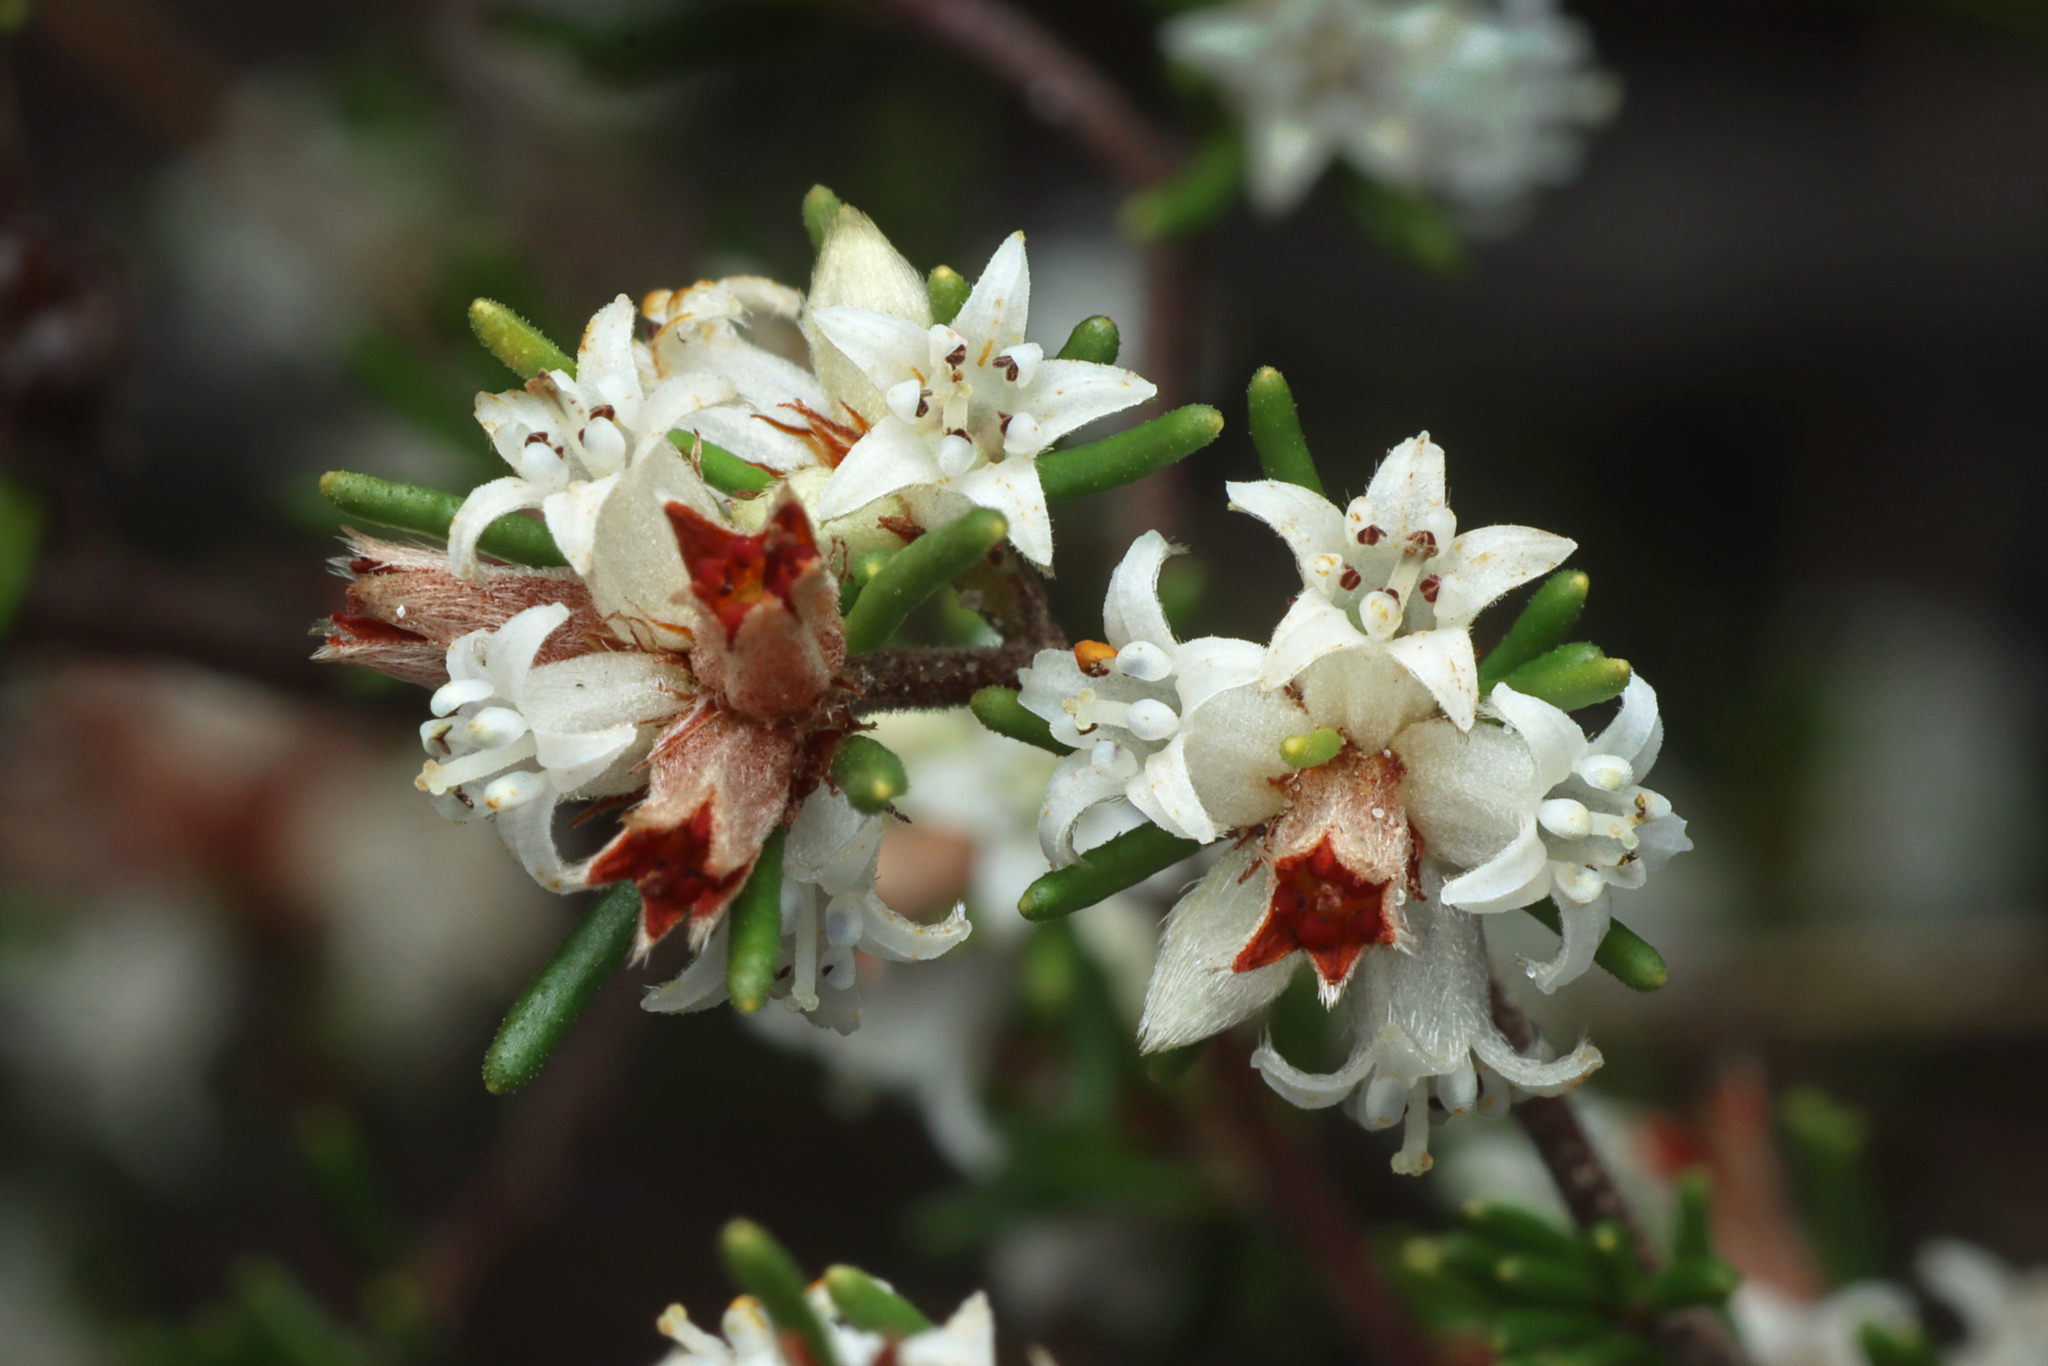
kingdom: Plantae
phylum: Tracheophyta
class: Magnoliopsida
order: Rosales
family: Rhamnaceae
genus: Cryptandra
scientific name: Cryptandra hispidula
